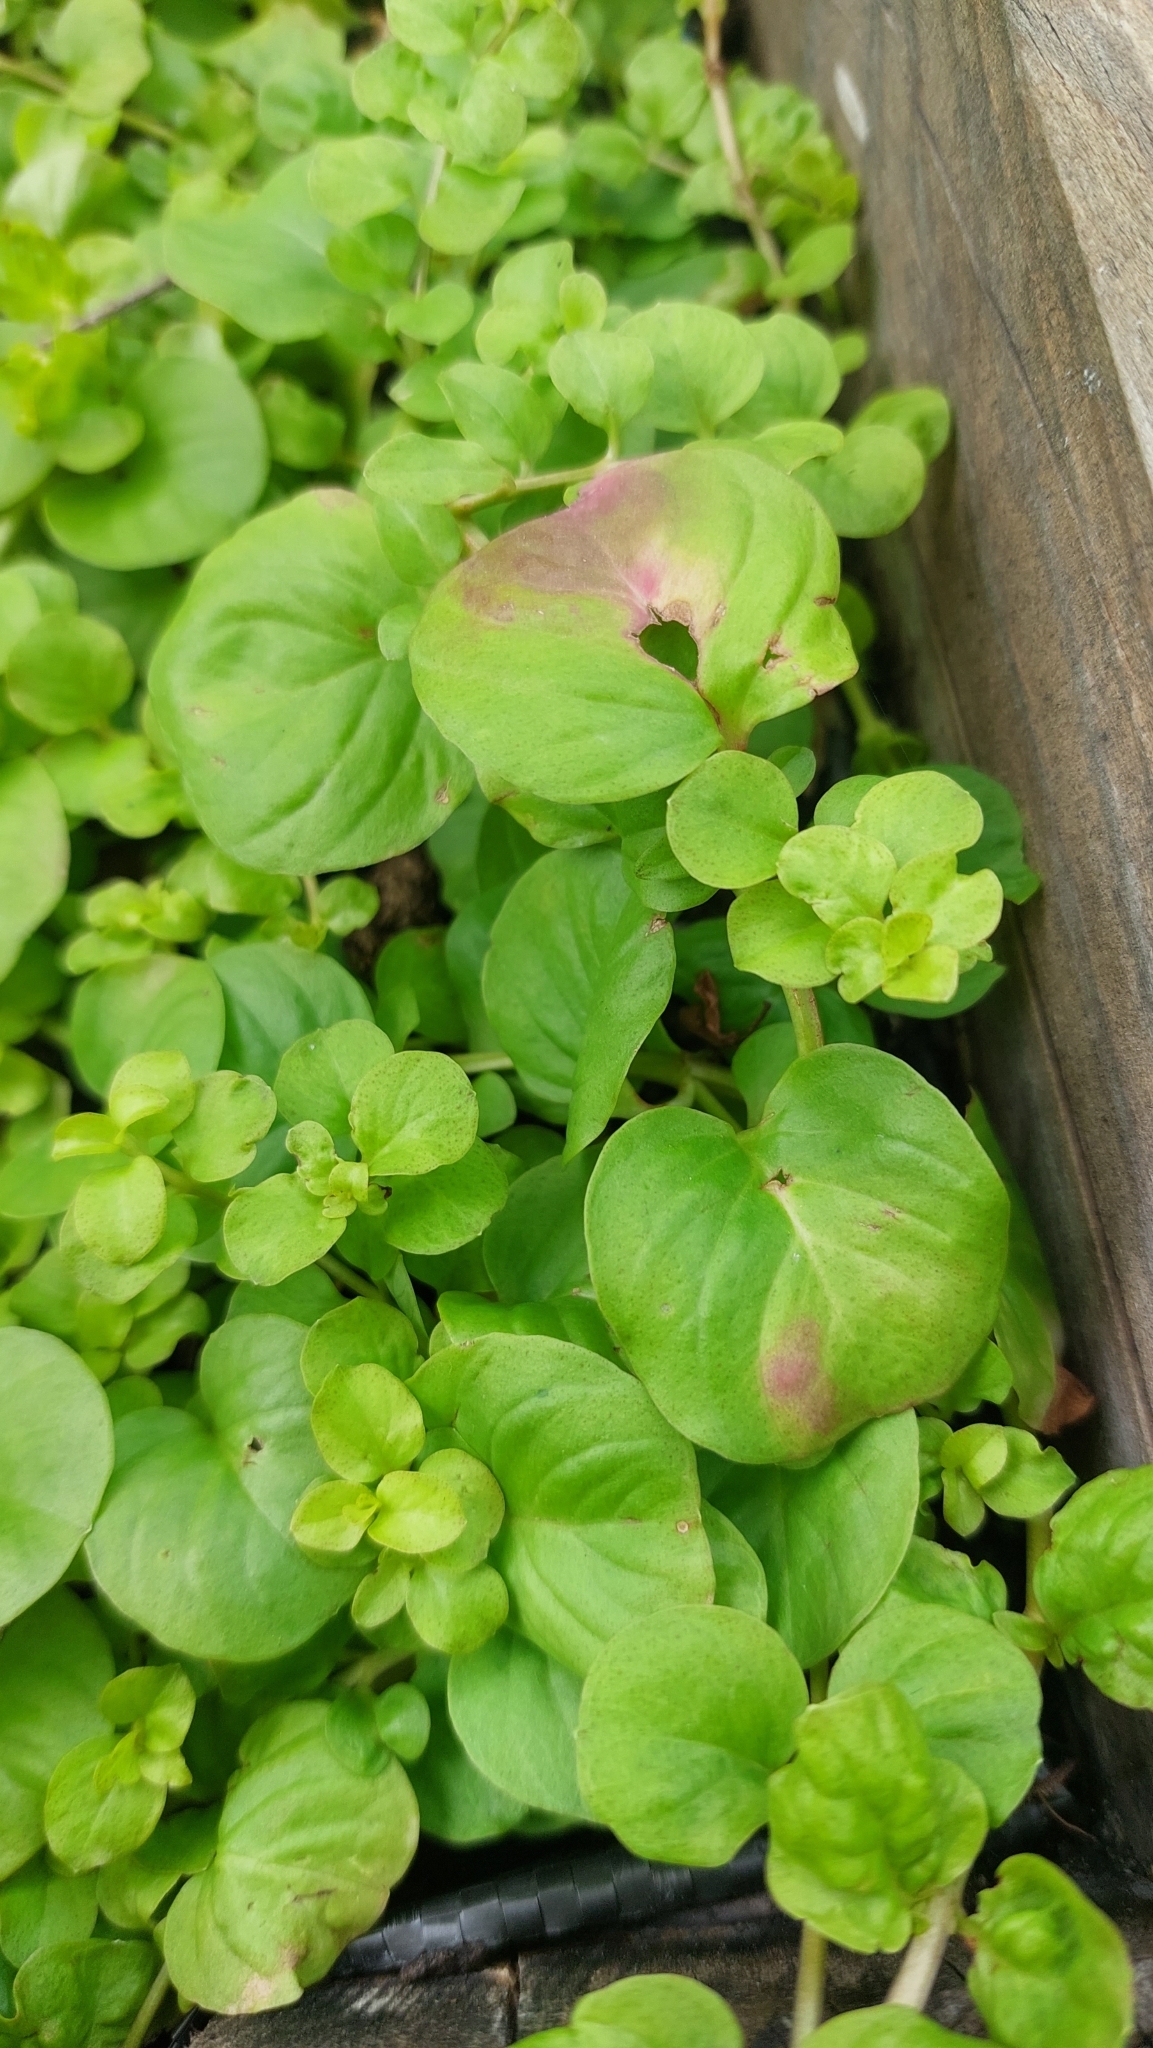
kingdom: Plantae
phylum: Tracheophyta
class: Magnoliopsida
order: Ericales
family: Primulaceae
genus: Lysimachia
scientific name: Lysimachia nummularia
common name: Moneywort
